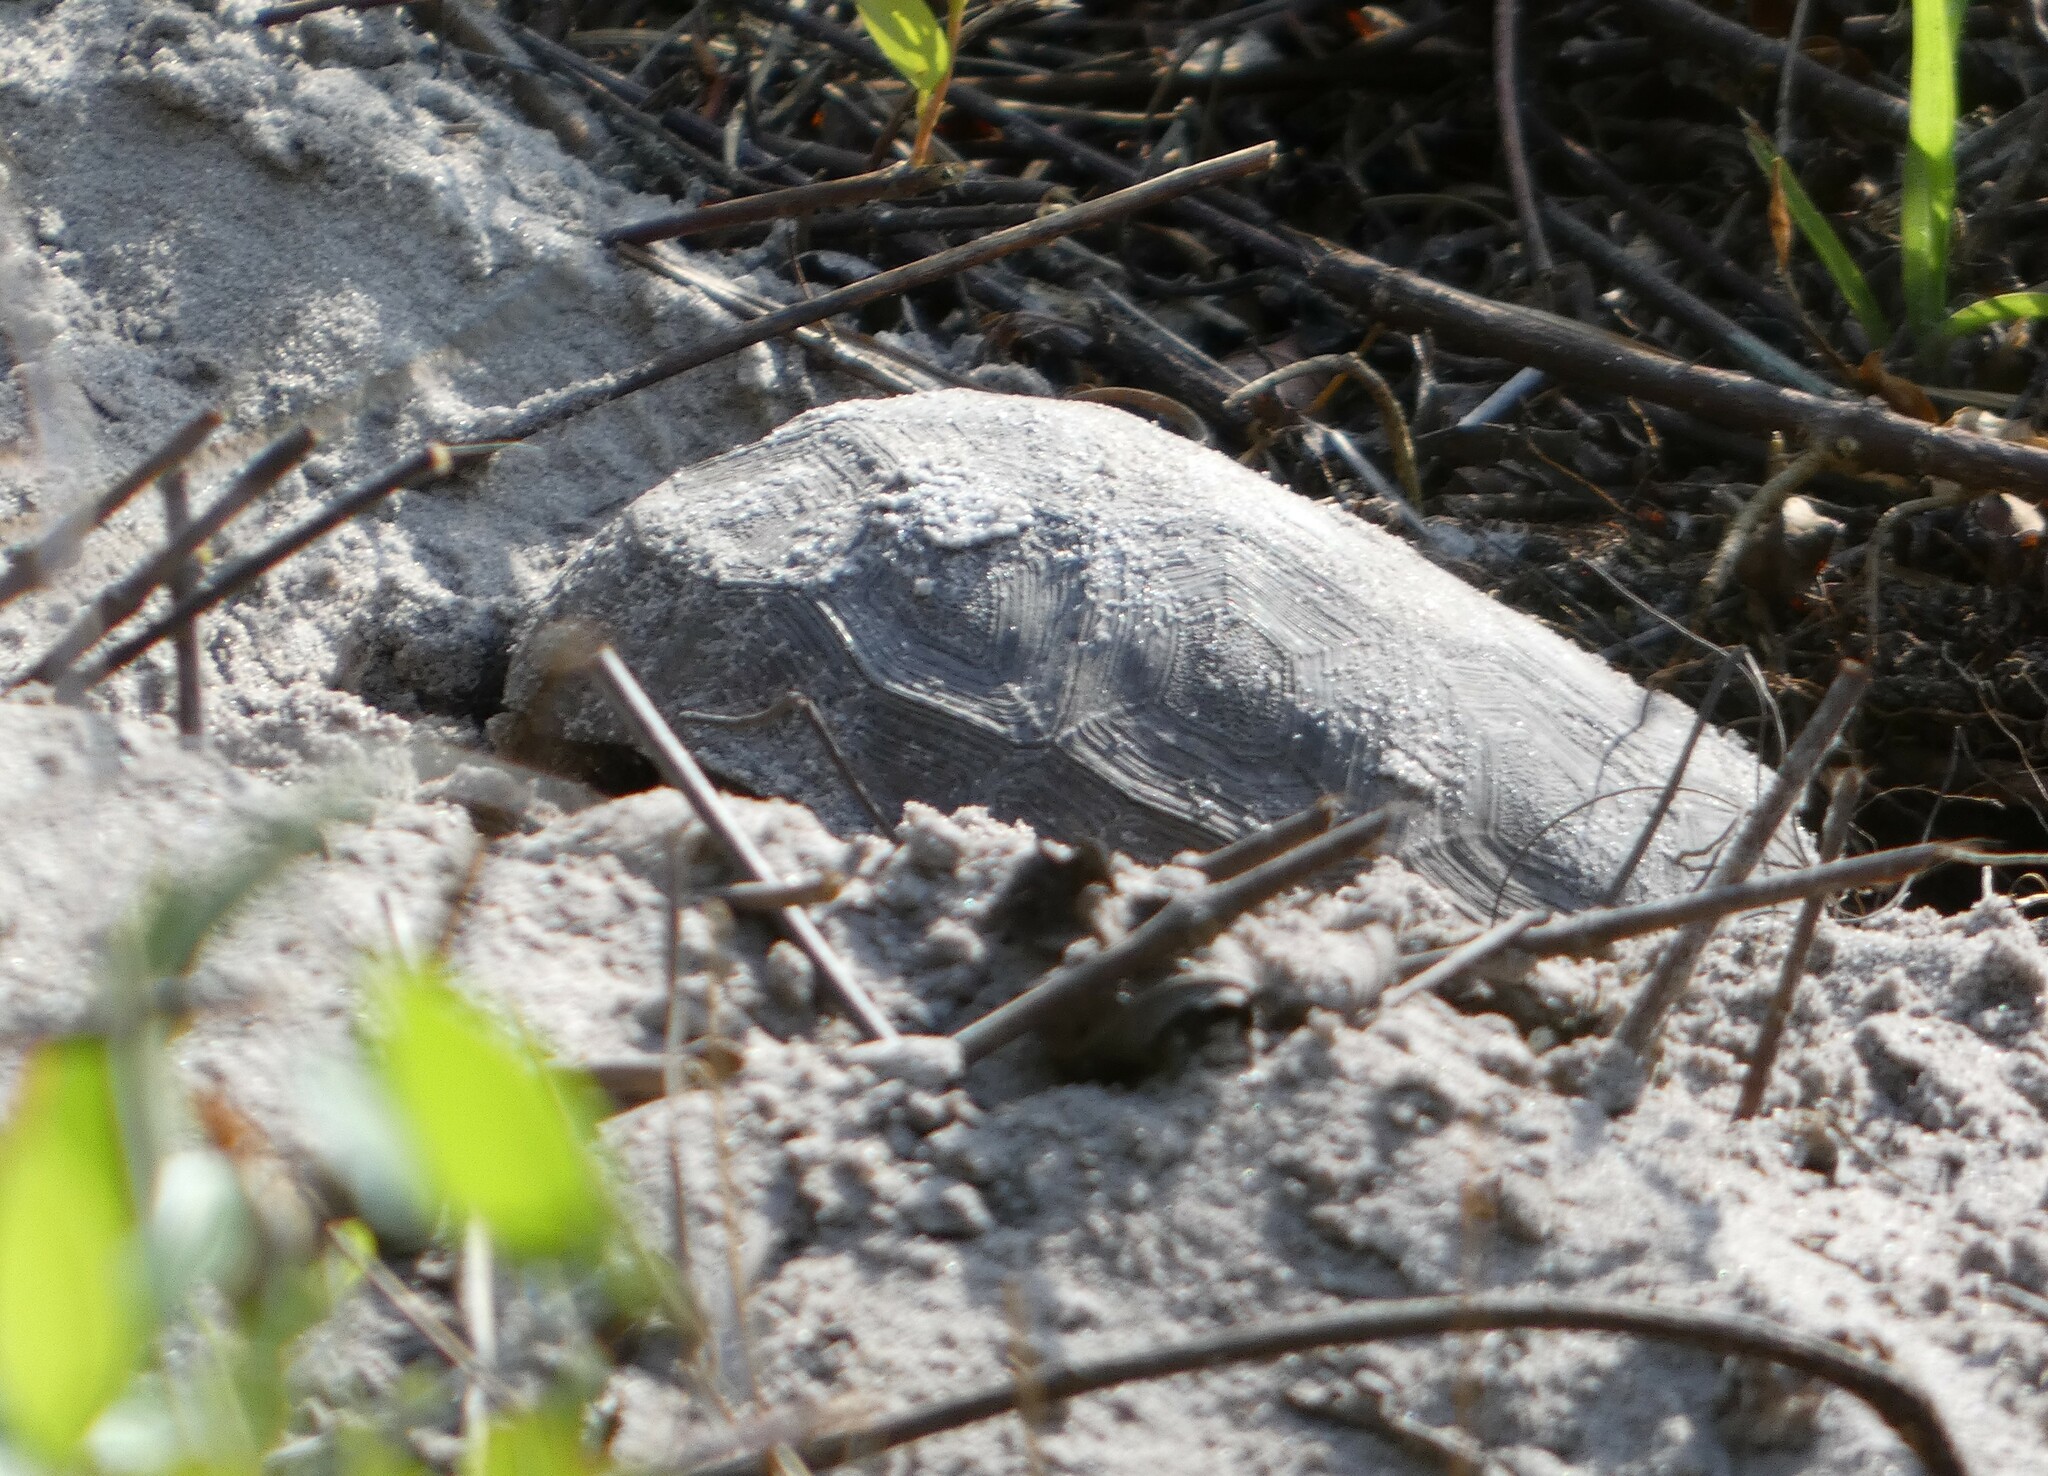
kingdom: Animalia
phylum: Chordata
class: Testudines
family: Testudinidae
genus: Gopherus
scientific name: Gopherus polyphemus
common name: Florida gopher tortoise
